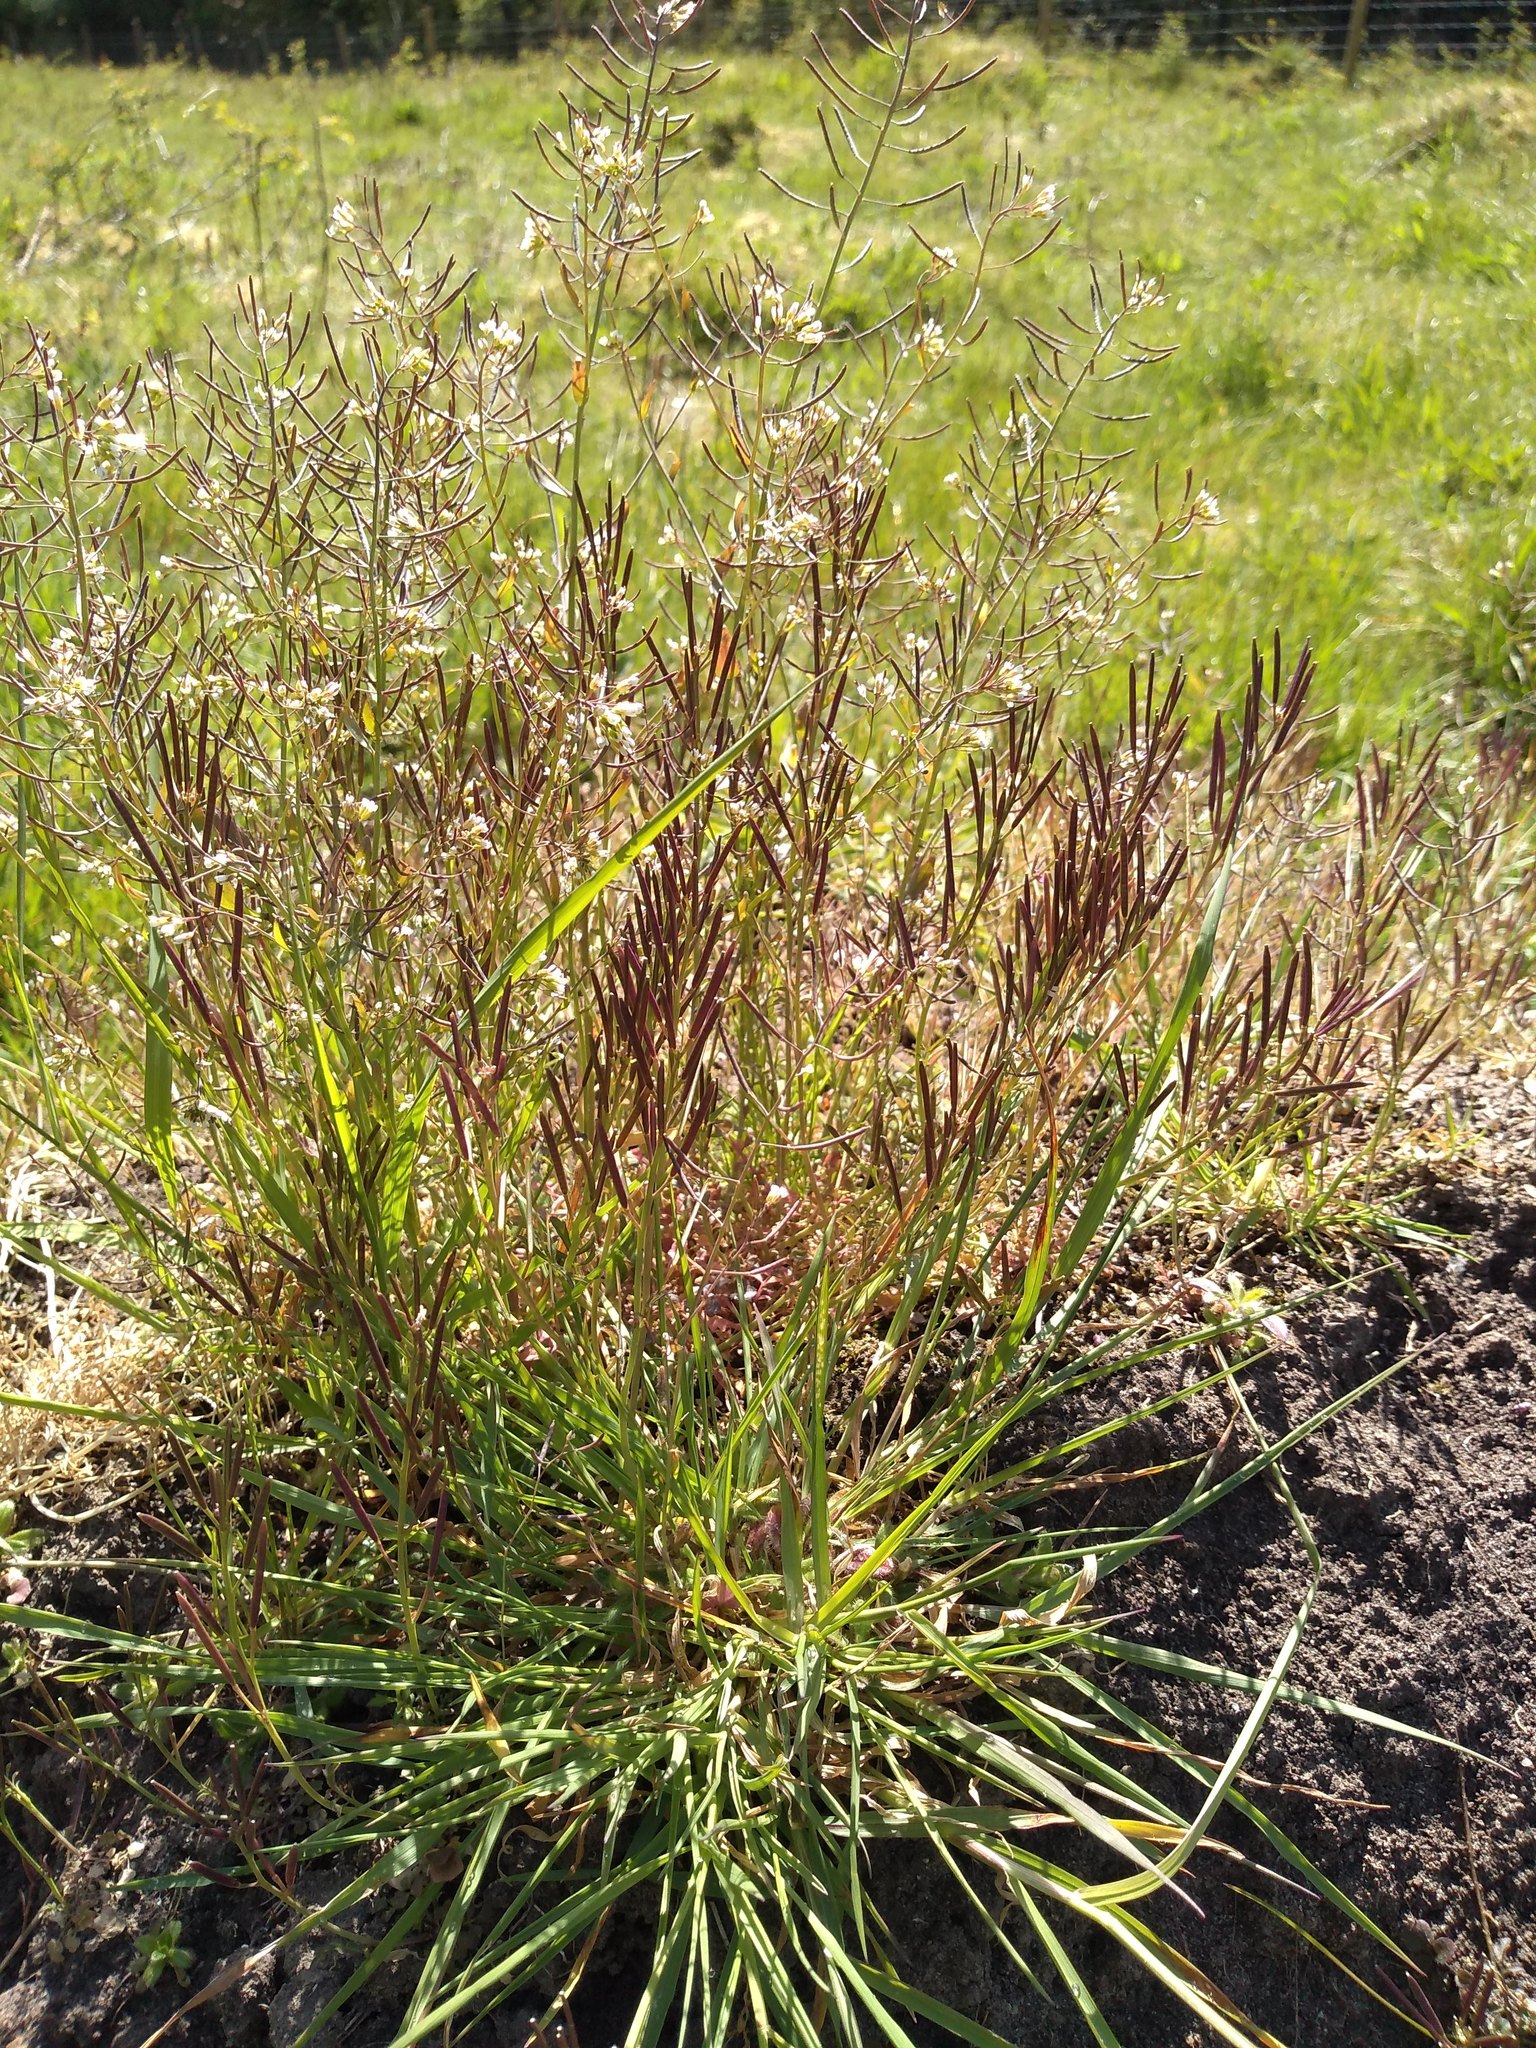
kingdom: Plantae
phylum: Tracheophyta
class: Magnoliopsida
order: Brassicales
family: Brassicaceae
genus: Arabidopsis
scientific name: Arabidopsis thaliana
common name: Thale cress
